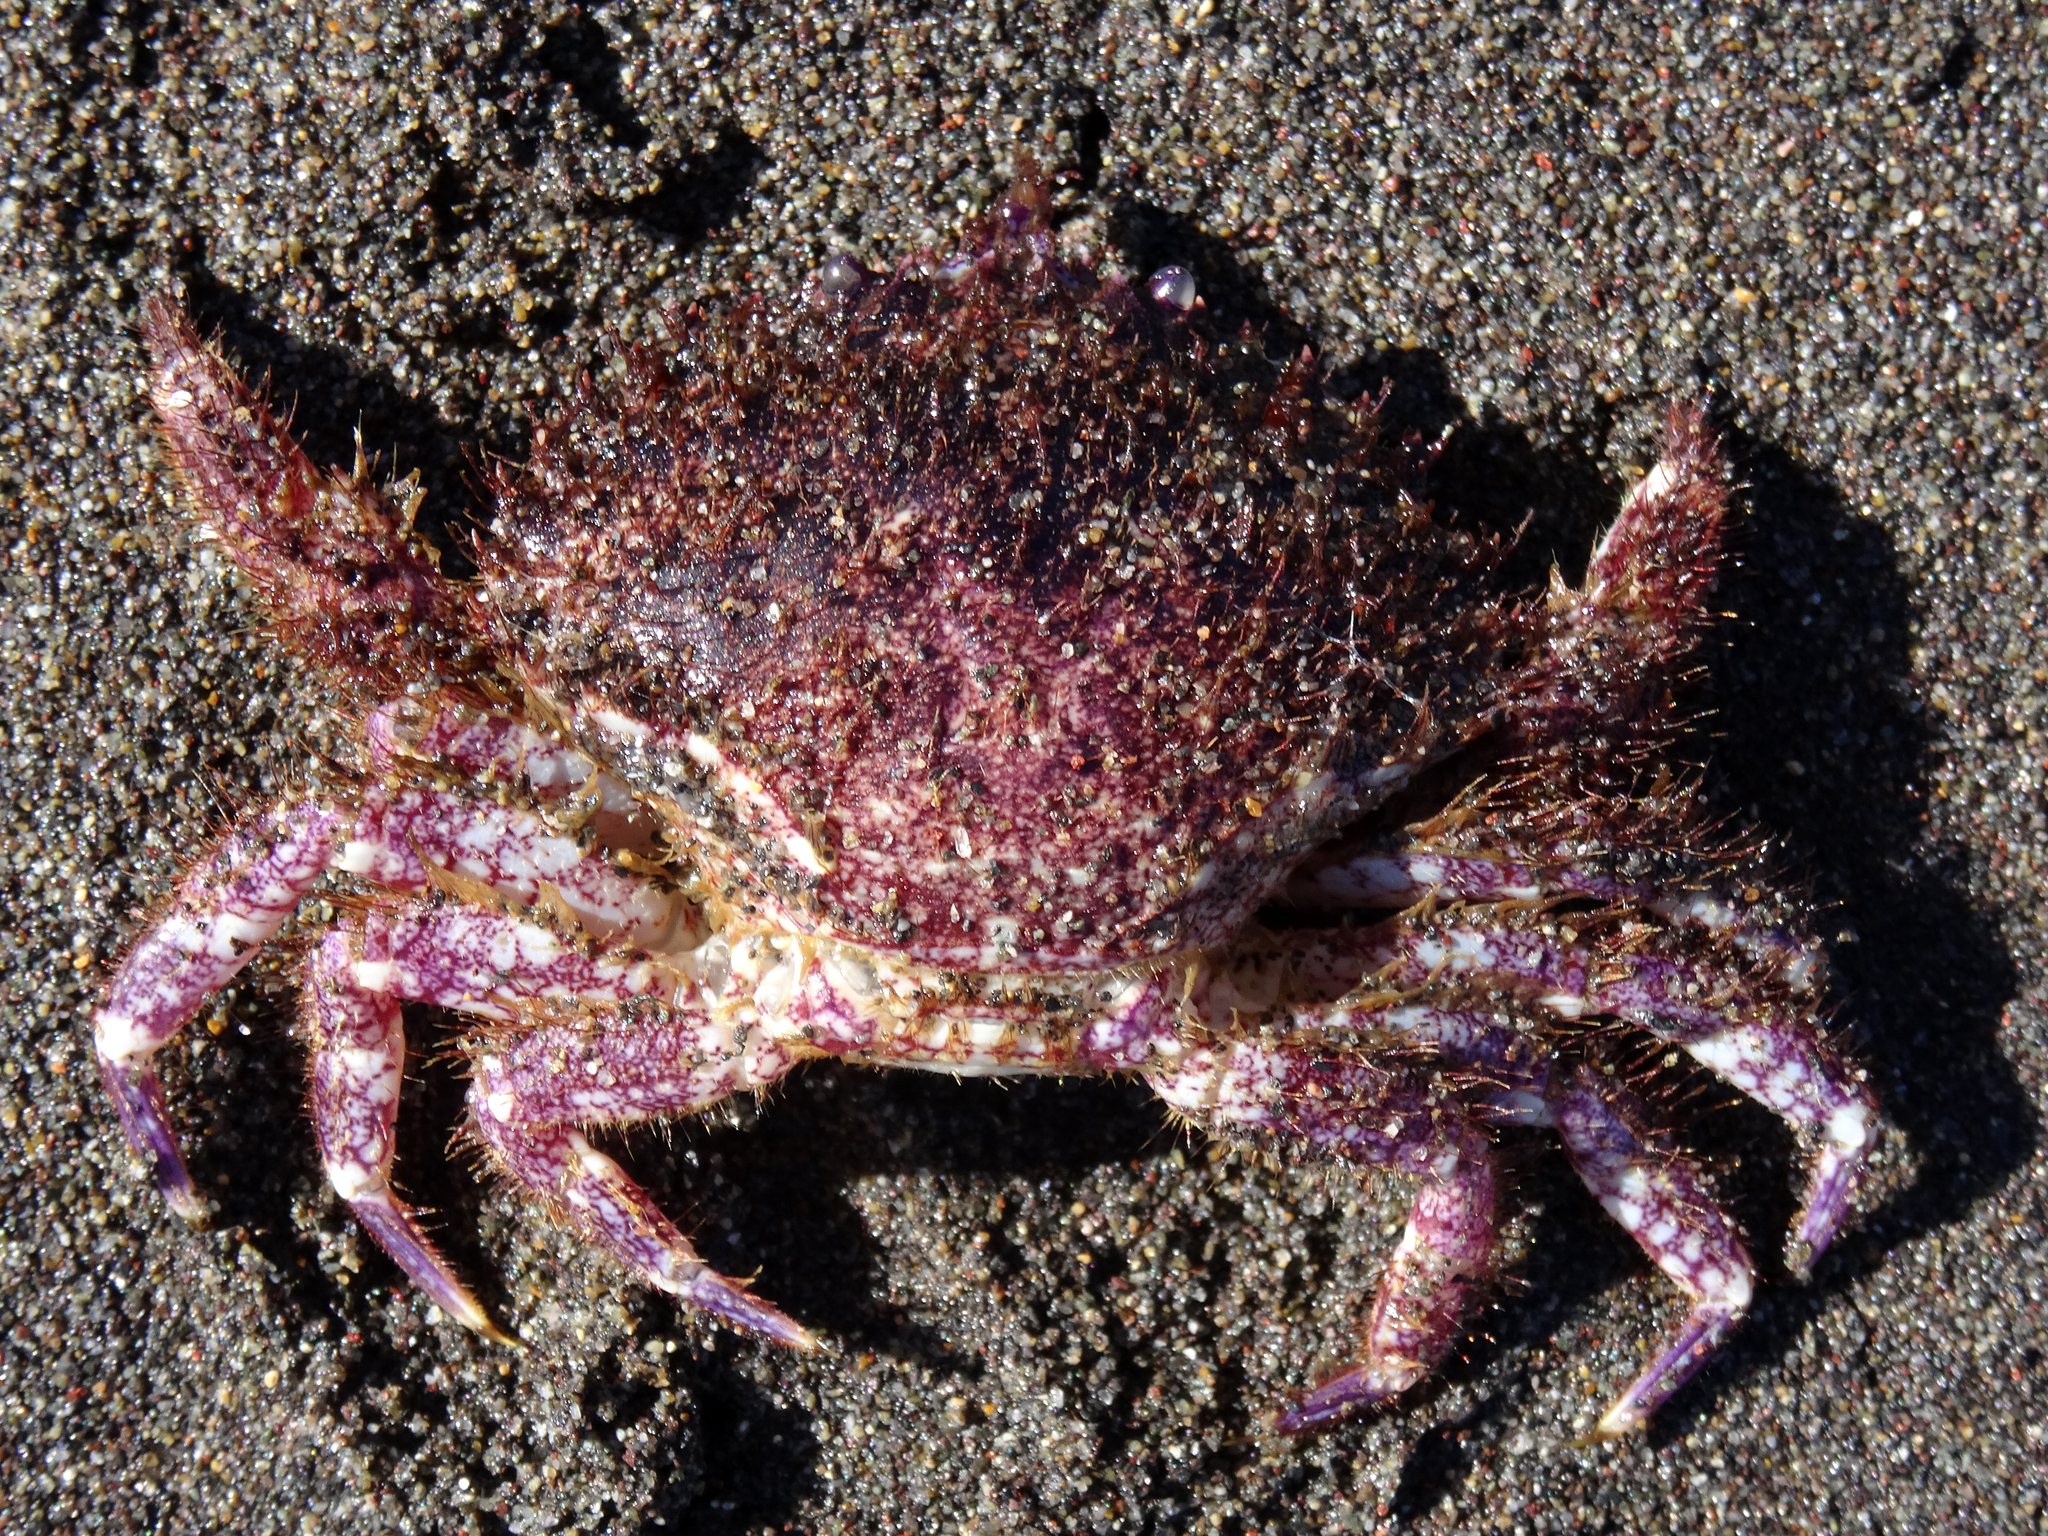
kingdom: Animalia
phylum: Arthropoda
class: Malacostraca
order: Decapoda
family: Cancridae
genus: Romaleon
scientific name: Romaleon setosum
